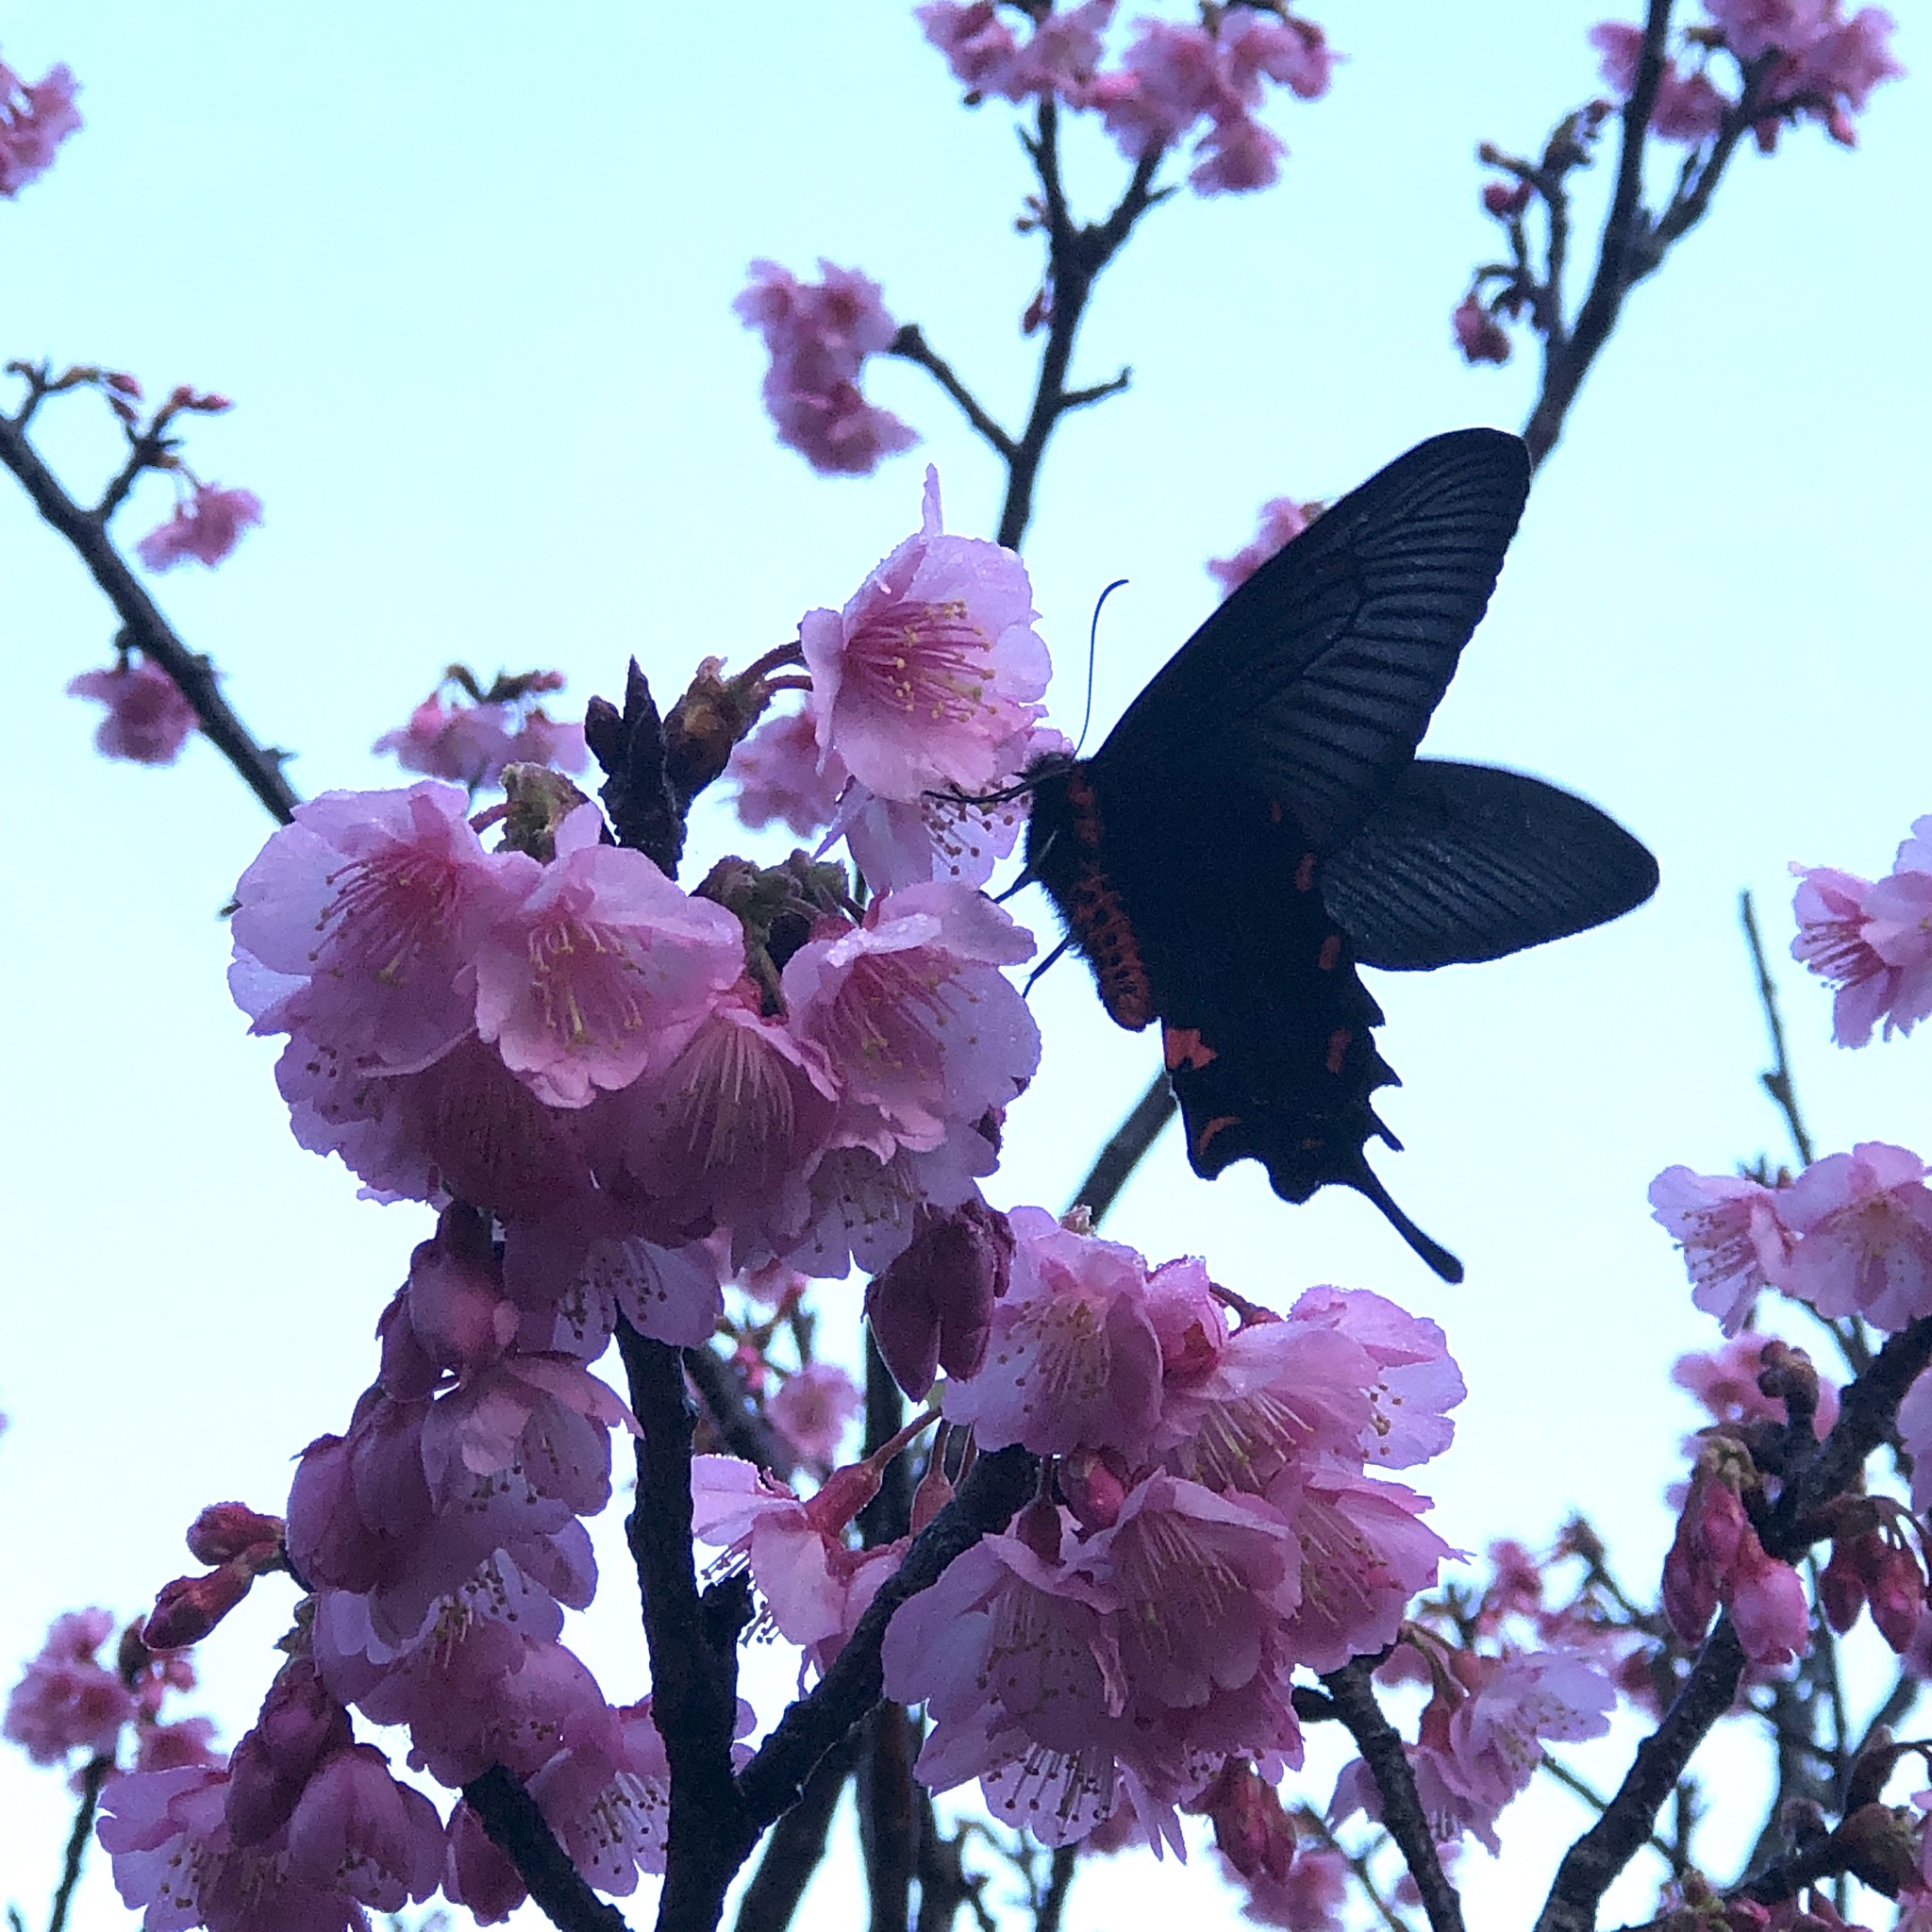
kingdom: Animalia
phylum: Arthropoda
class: Insecta
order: Lepidoptera
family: Papilionidae
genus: Byasa
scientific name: Byasa alcinous
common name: Chinese windmill
